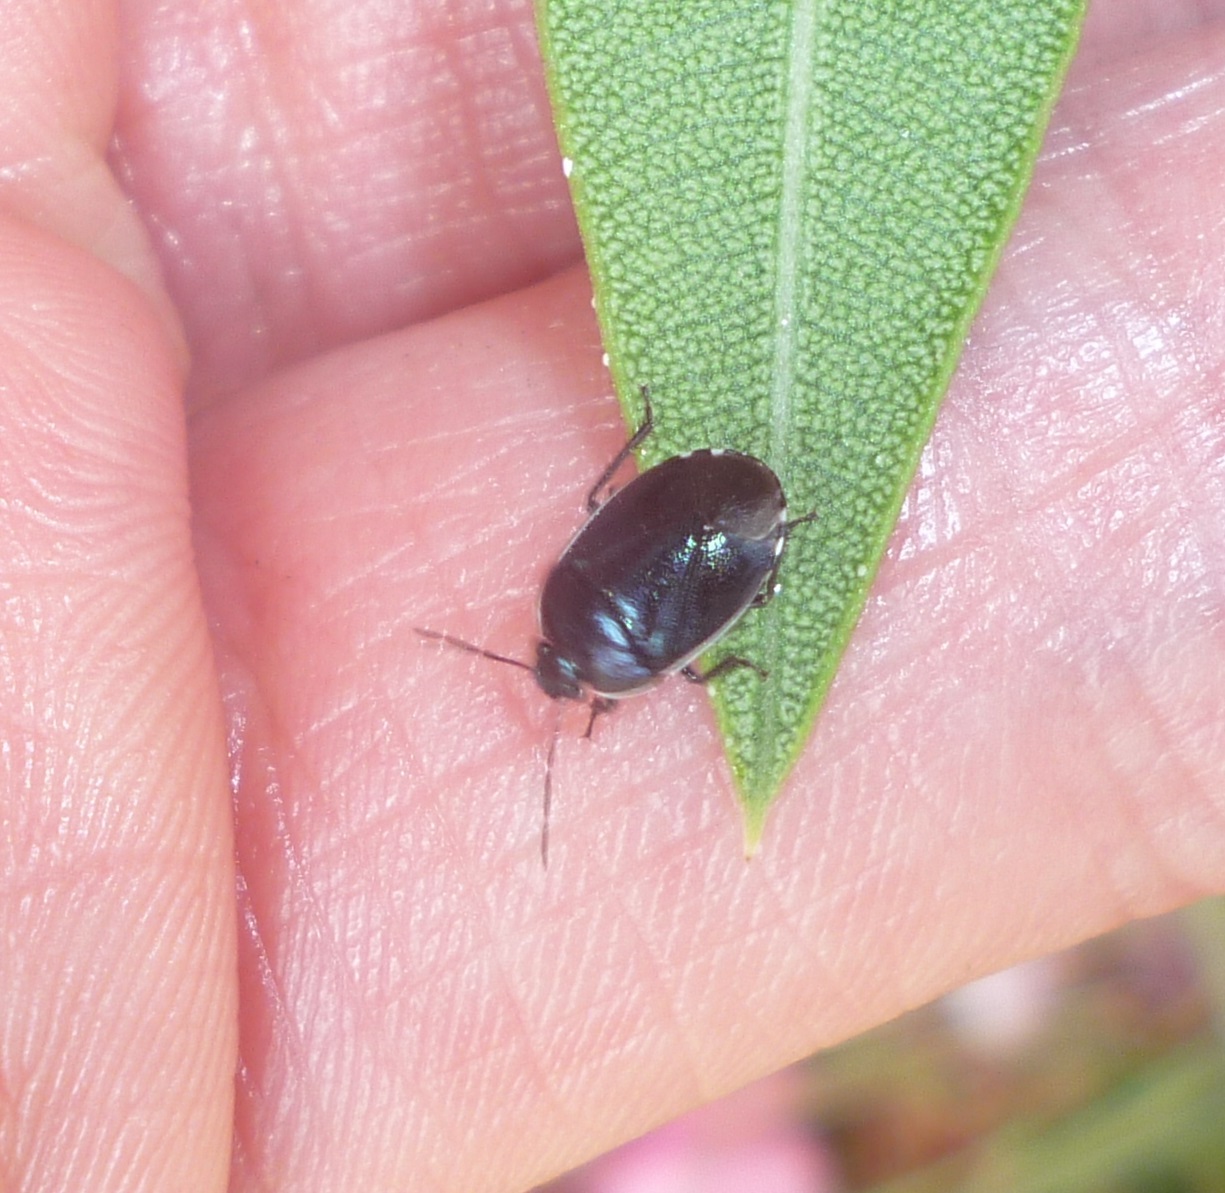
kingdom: Animalia
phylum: Arthropoda
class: Insecta
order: Hemiptera
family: Cydnidae
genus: Canthophorus
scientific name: Canthophorus melanopterus
